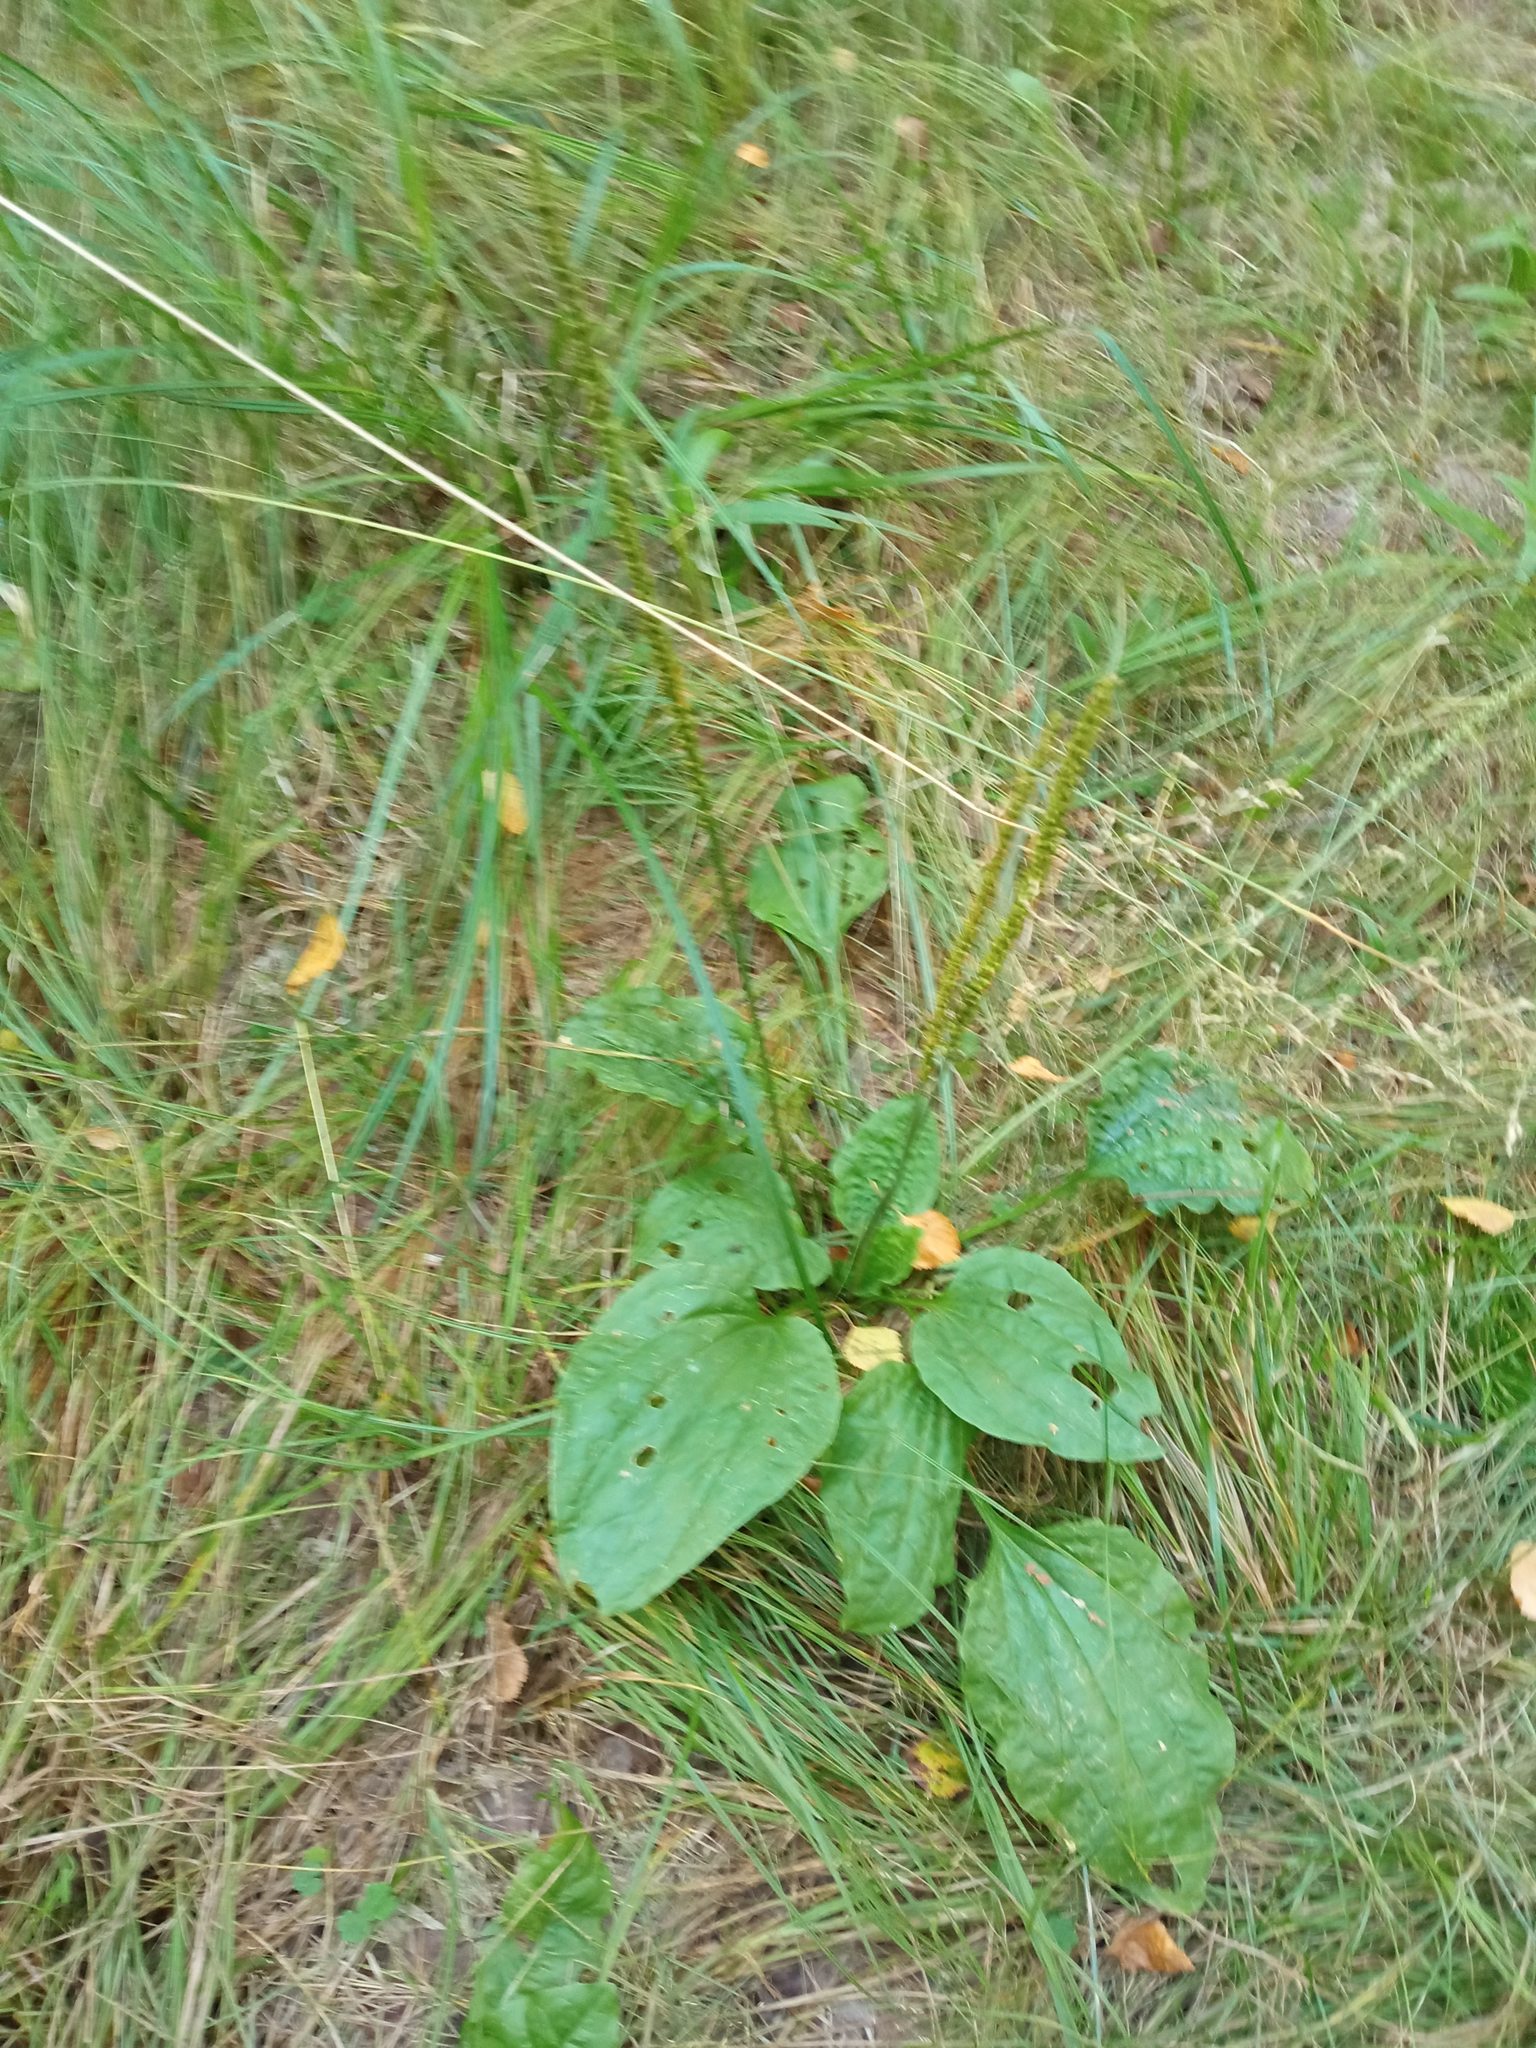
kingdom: Plantae
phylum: Tracheophyta
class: Magnoliopsida
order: Lamiales
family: Plantaginaceae
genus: Plantago
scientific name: Plantago major
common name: Common plantain
